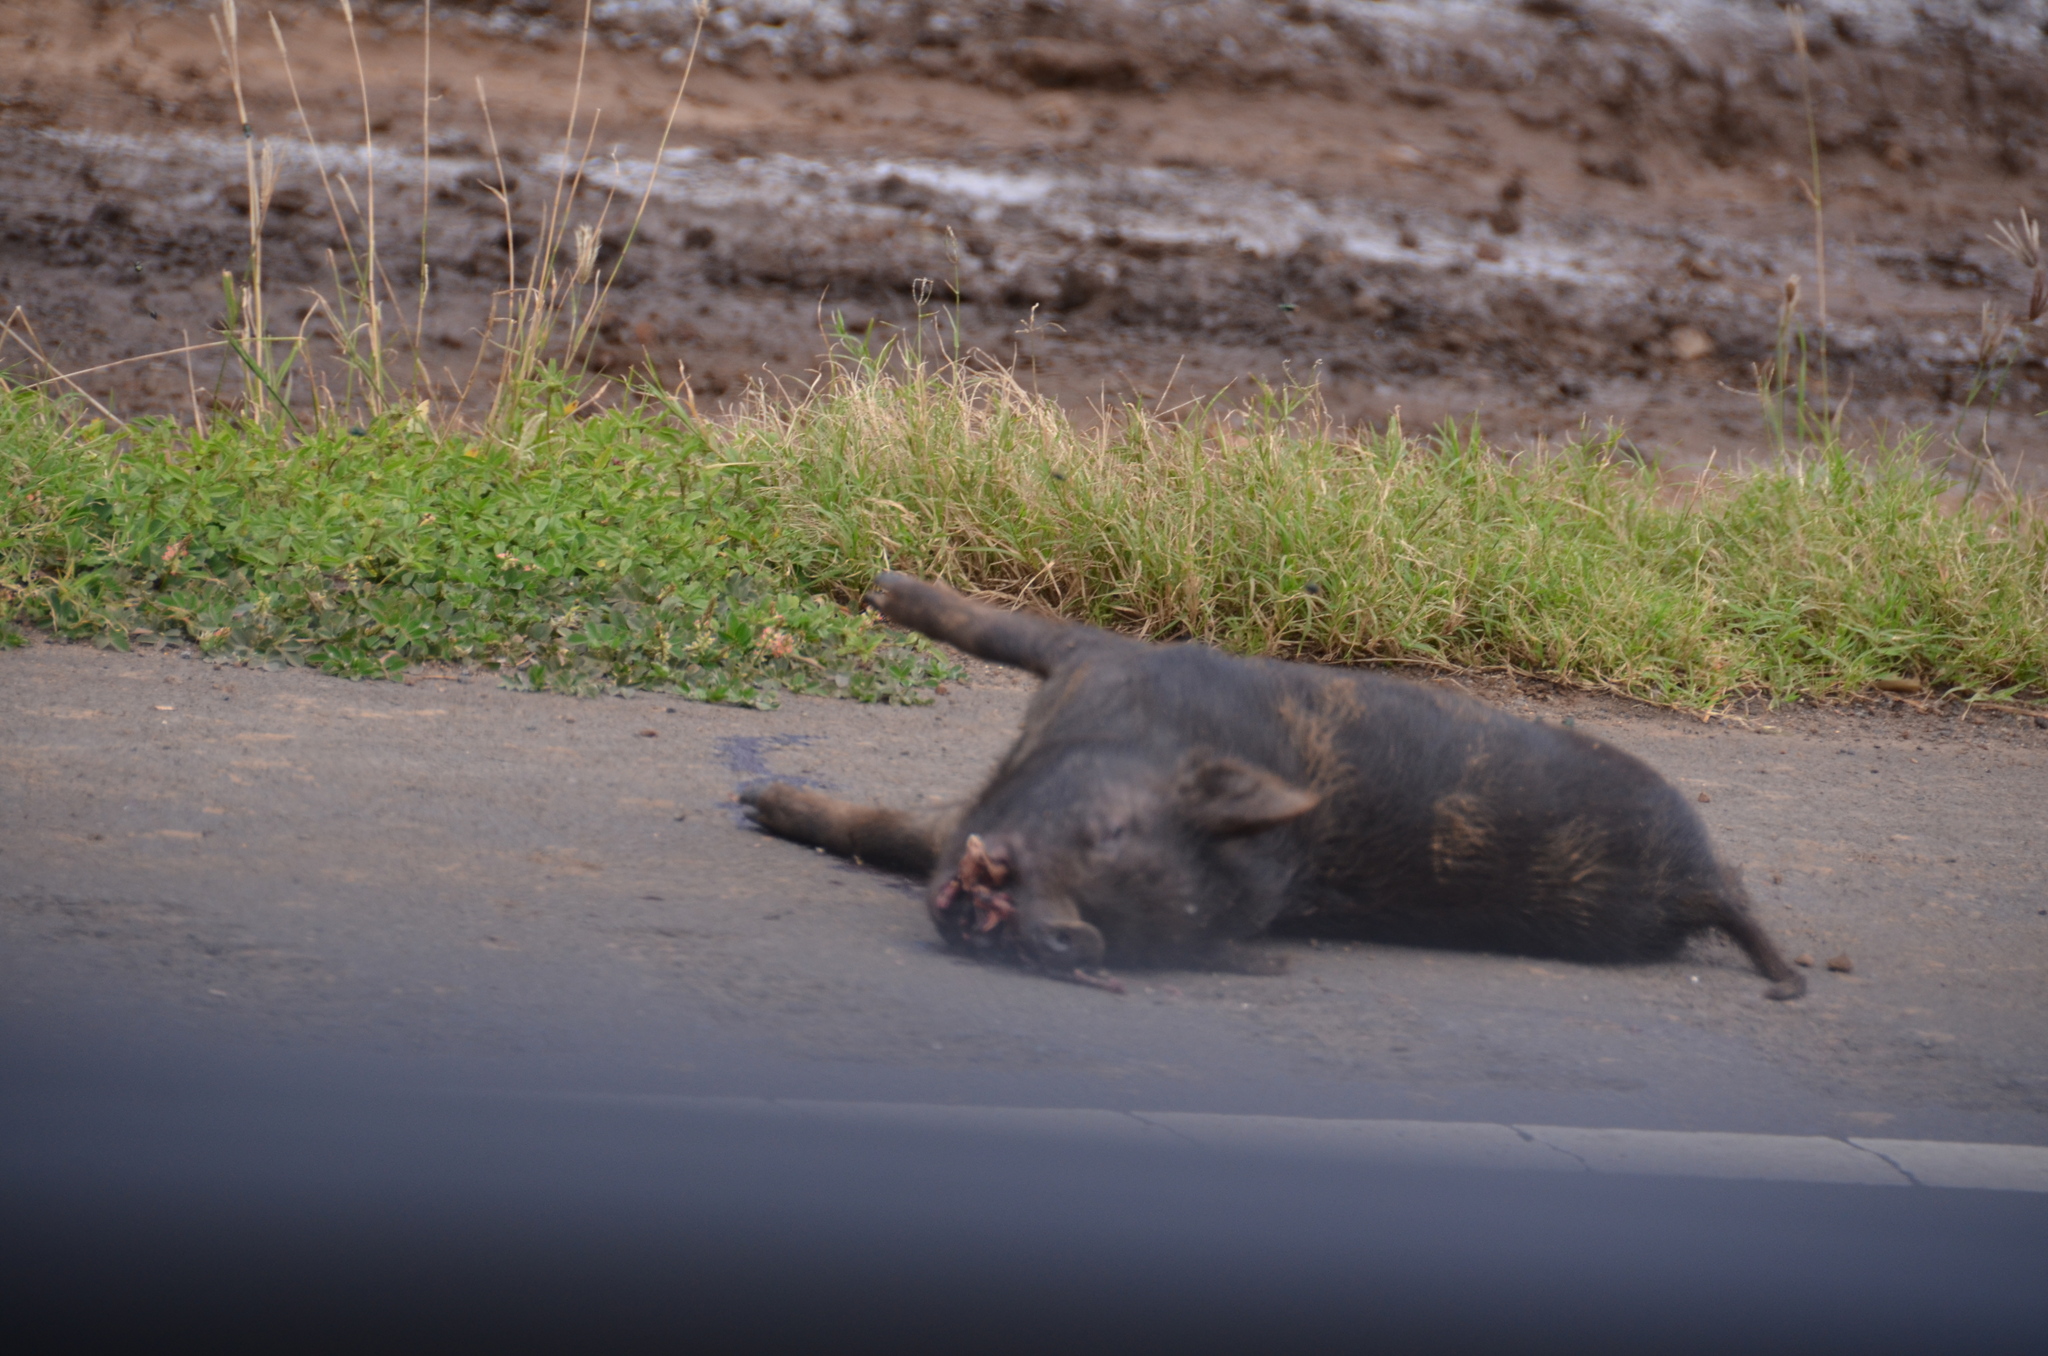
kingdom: Animalia
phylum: Chordata
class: Mammalia
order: Artiodactyla
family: Suidae
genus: Sus
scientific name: Sus scrofa
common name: Wild boar
